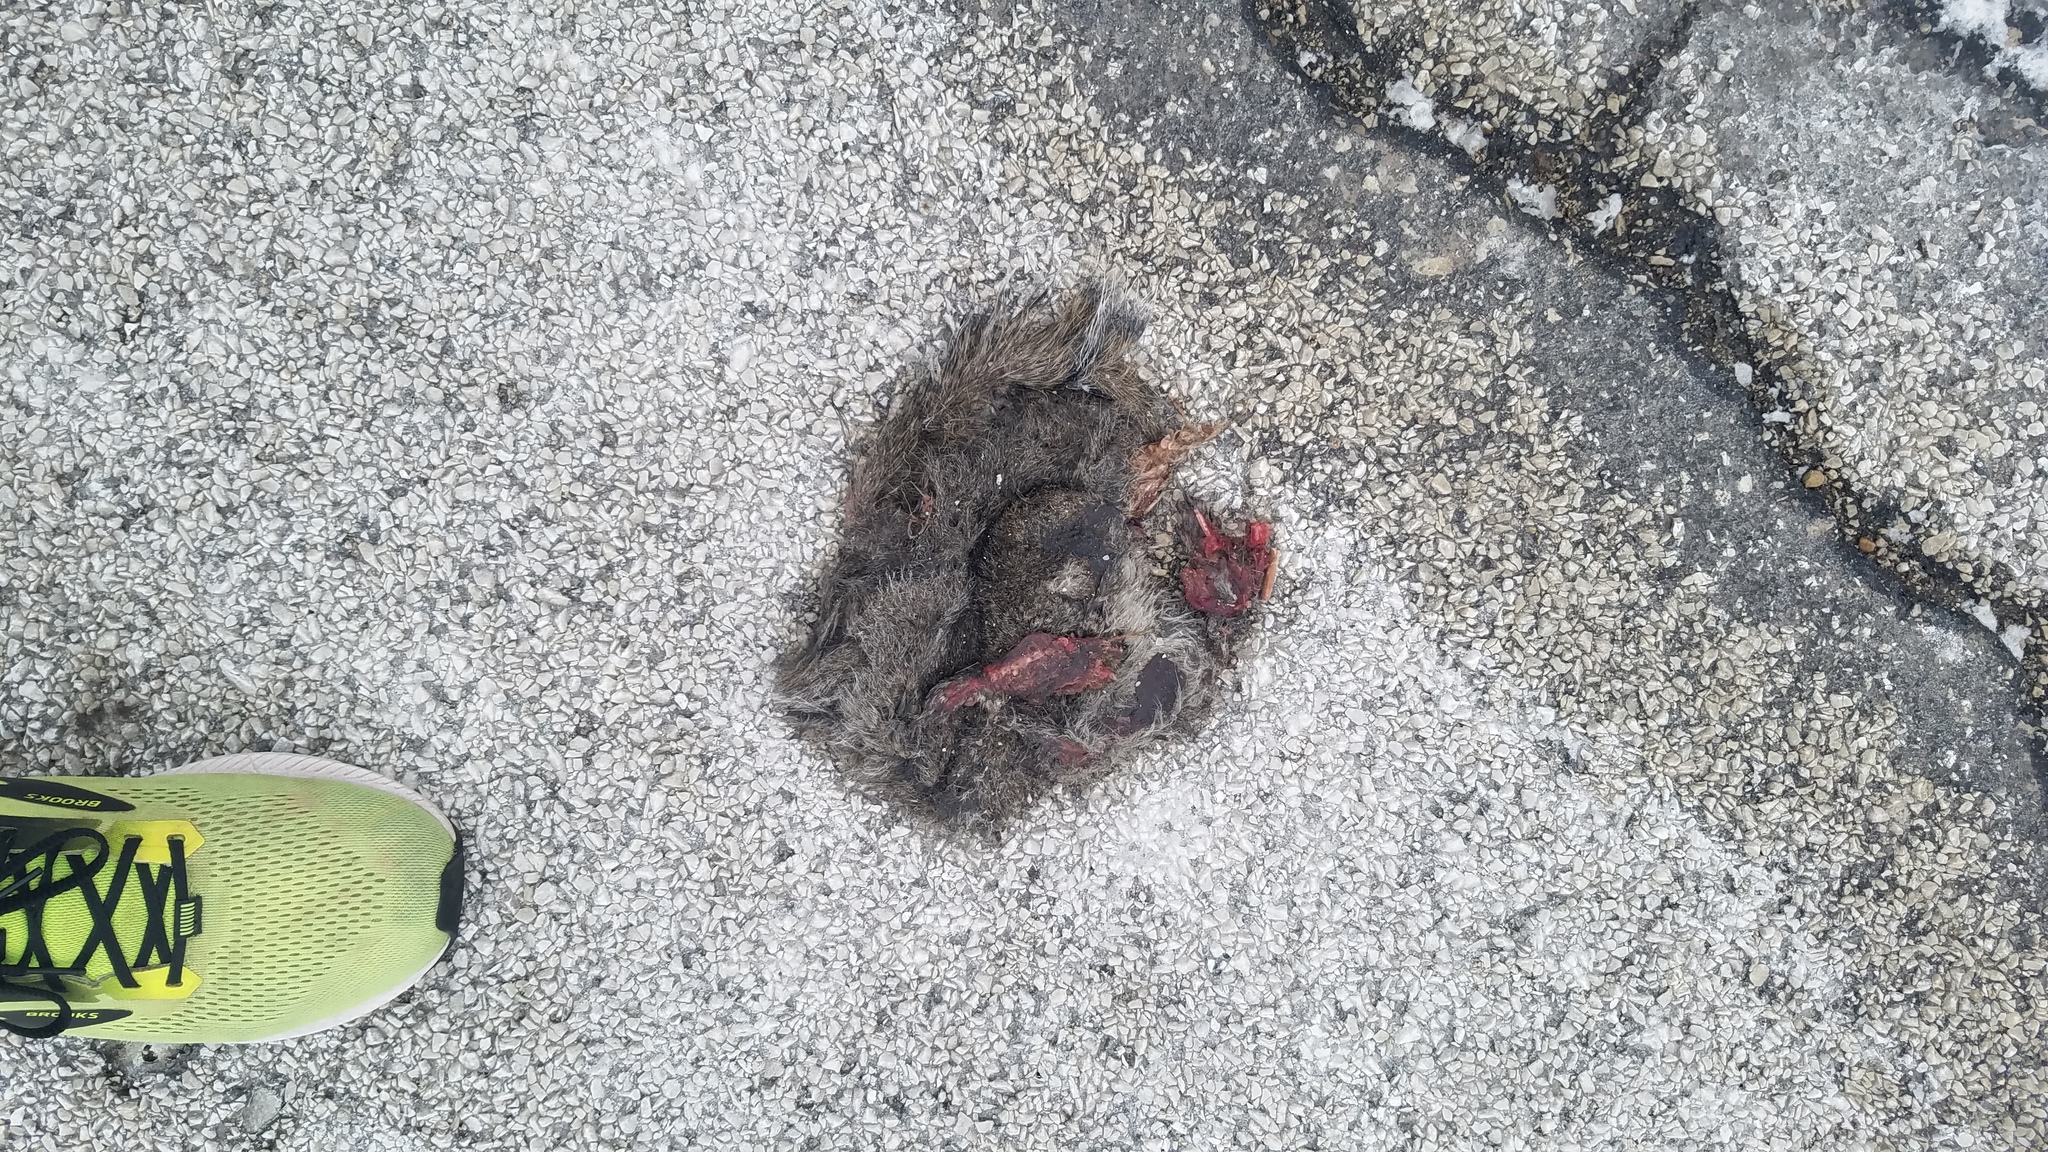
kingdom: Animalia
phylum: Chordata
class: Mammalia
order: Rodentia
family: Sciuridae
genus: Sciurus
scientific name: Sciurus carolinensis
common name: Eastern gray squirrel
